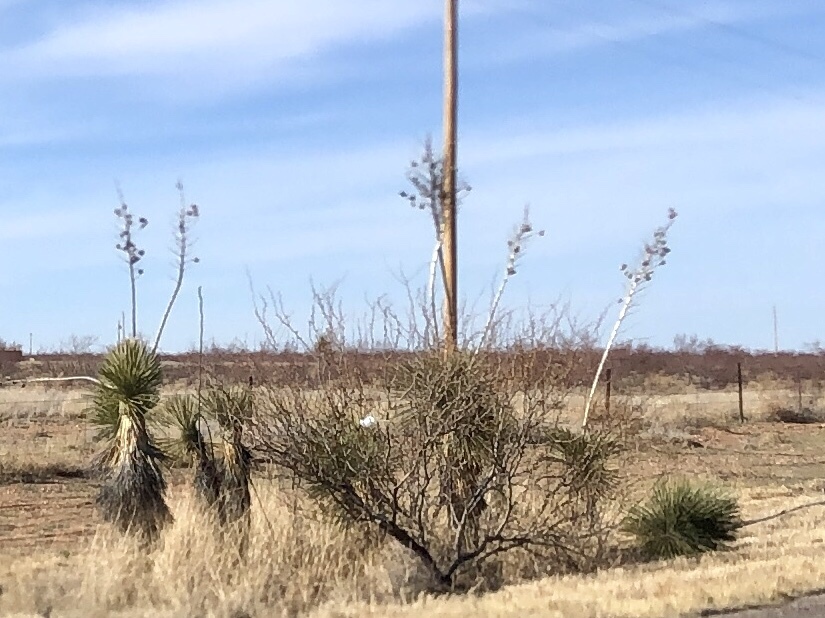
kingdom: Plantae
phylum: Tracheophyta
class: Liliopsida
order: Asparagales
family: Asparagaceae
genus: Yucca
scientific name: Yucca elata
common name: Palmella
